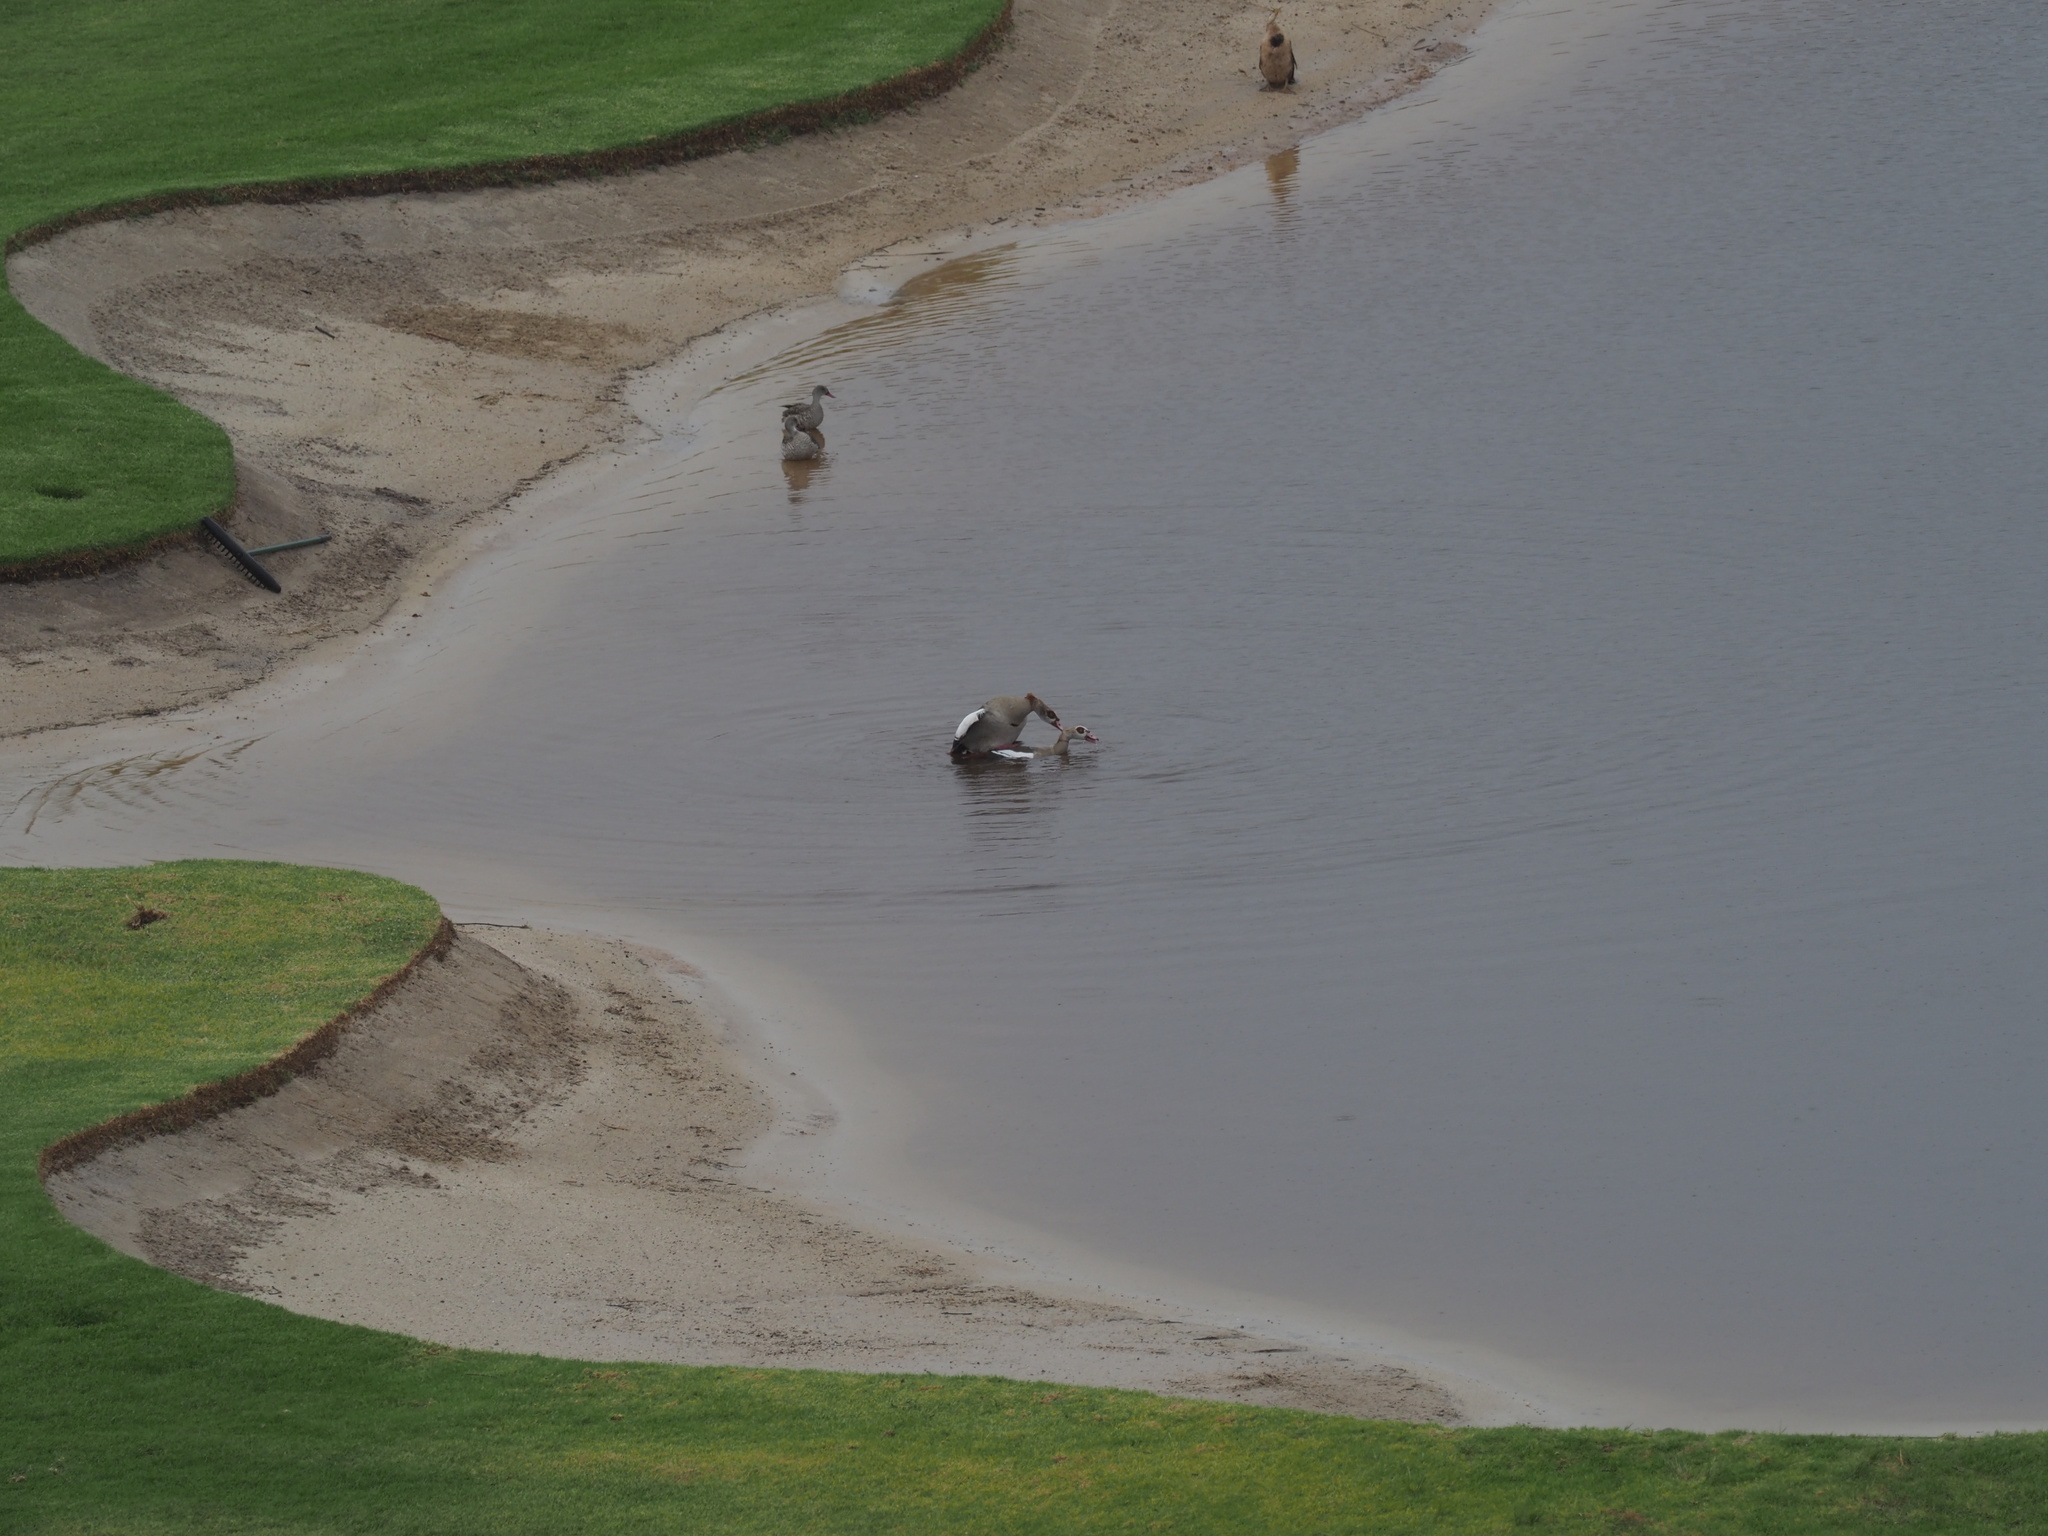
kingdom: Animalia
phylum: Chordata
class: Aves
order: Anseriformes
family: Anatidae
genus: Alopochen
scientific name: Alopochen aegyptiaca
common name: Egyptian goose
